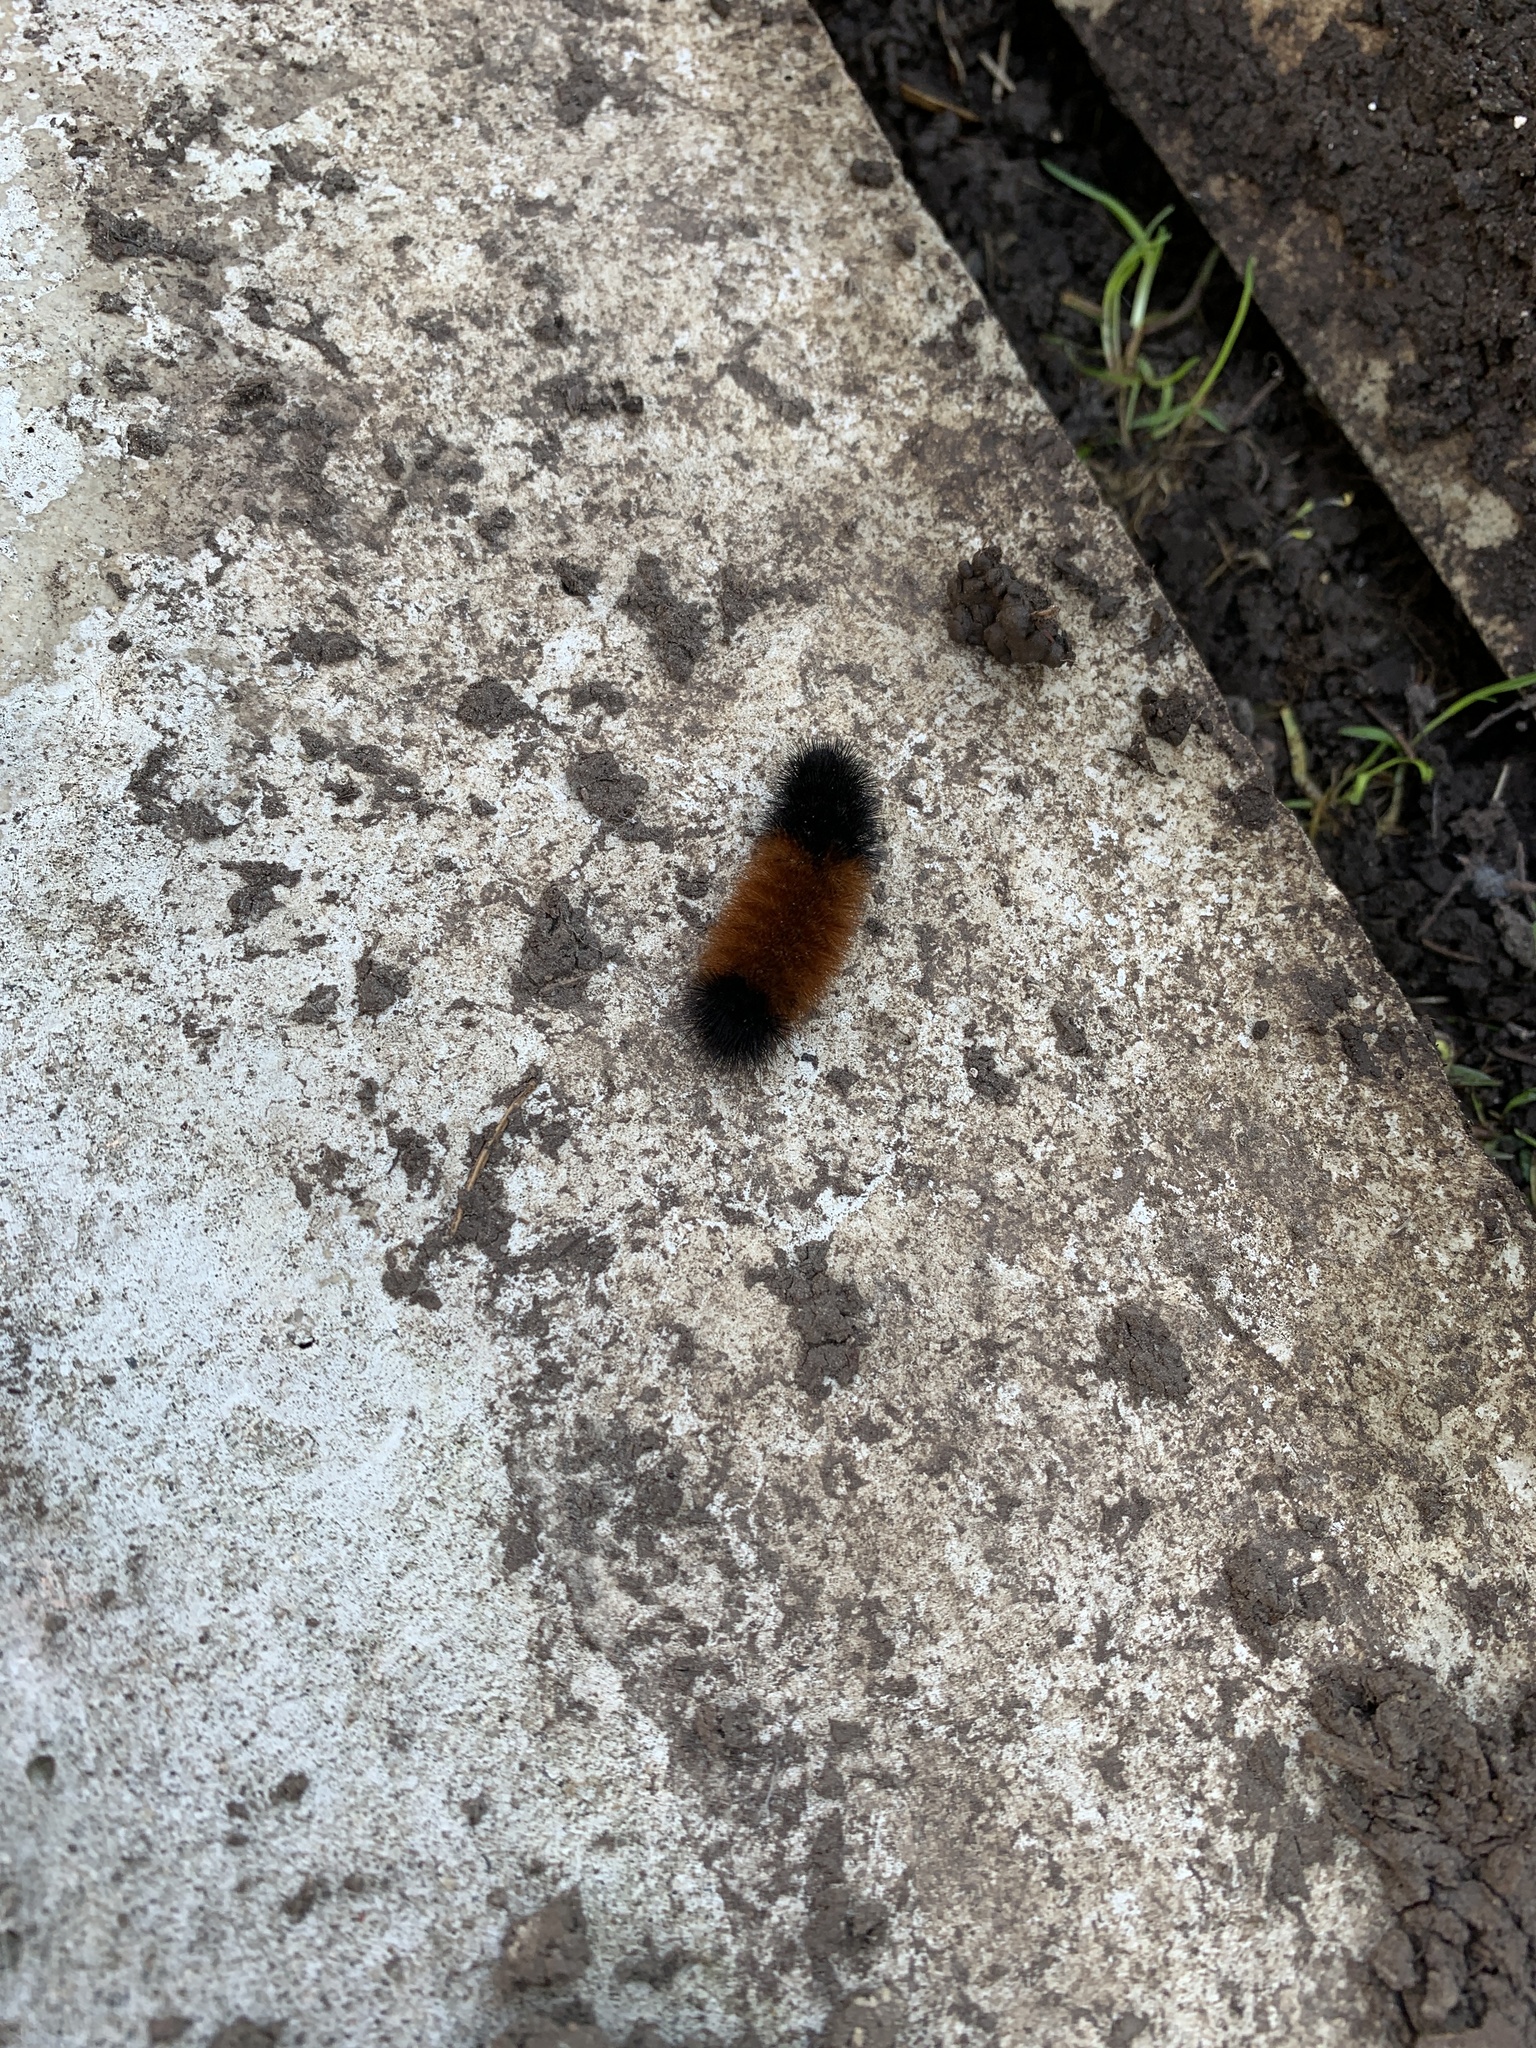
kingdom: Animalia
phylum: Arthropoda
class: Insecta
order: Lepidoptera
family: Erebidae
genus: Pyrrharctia
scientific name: Pyrrharctia isabella
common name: Isabella tiger moth
